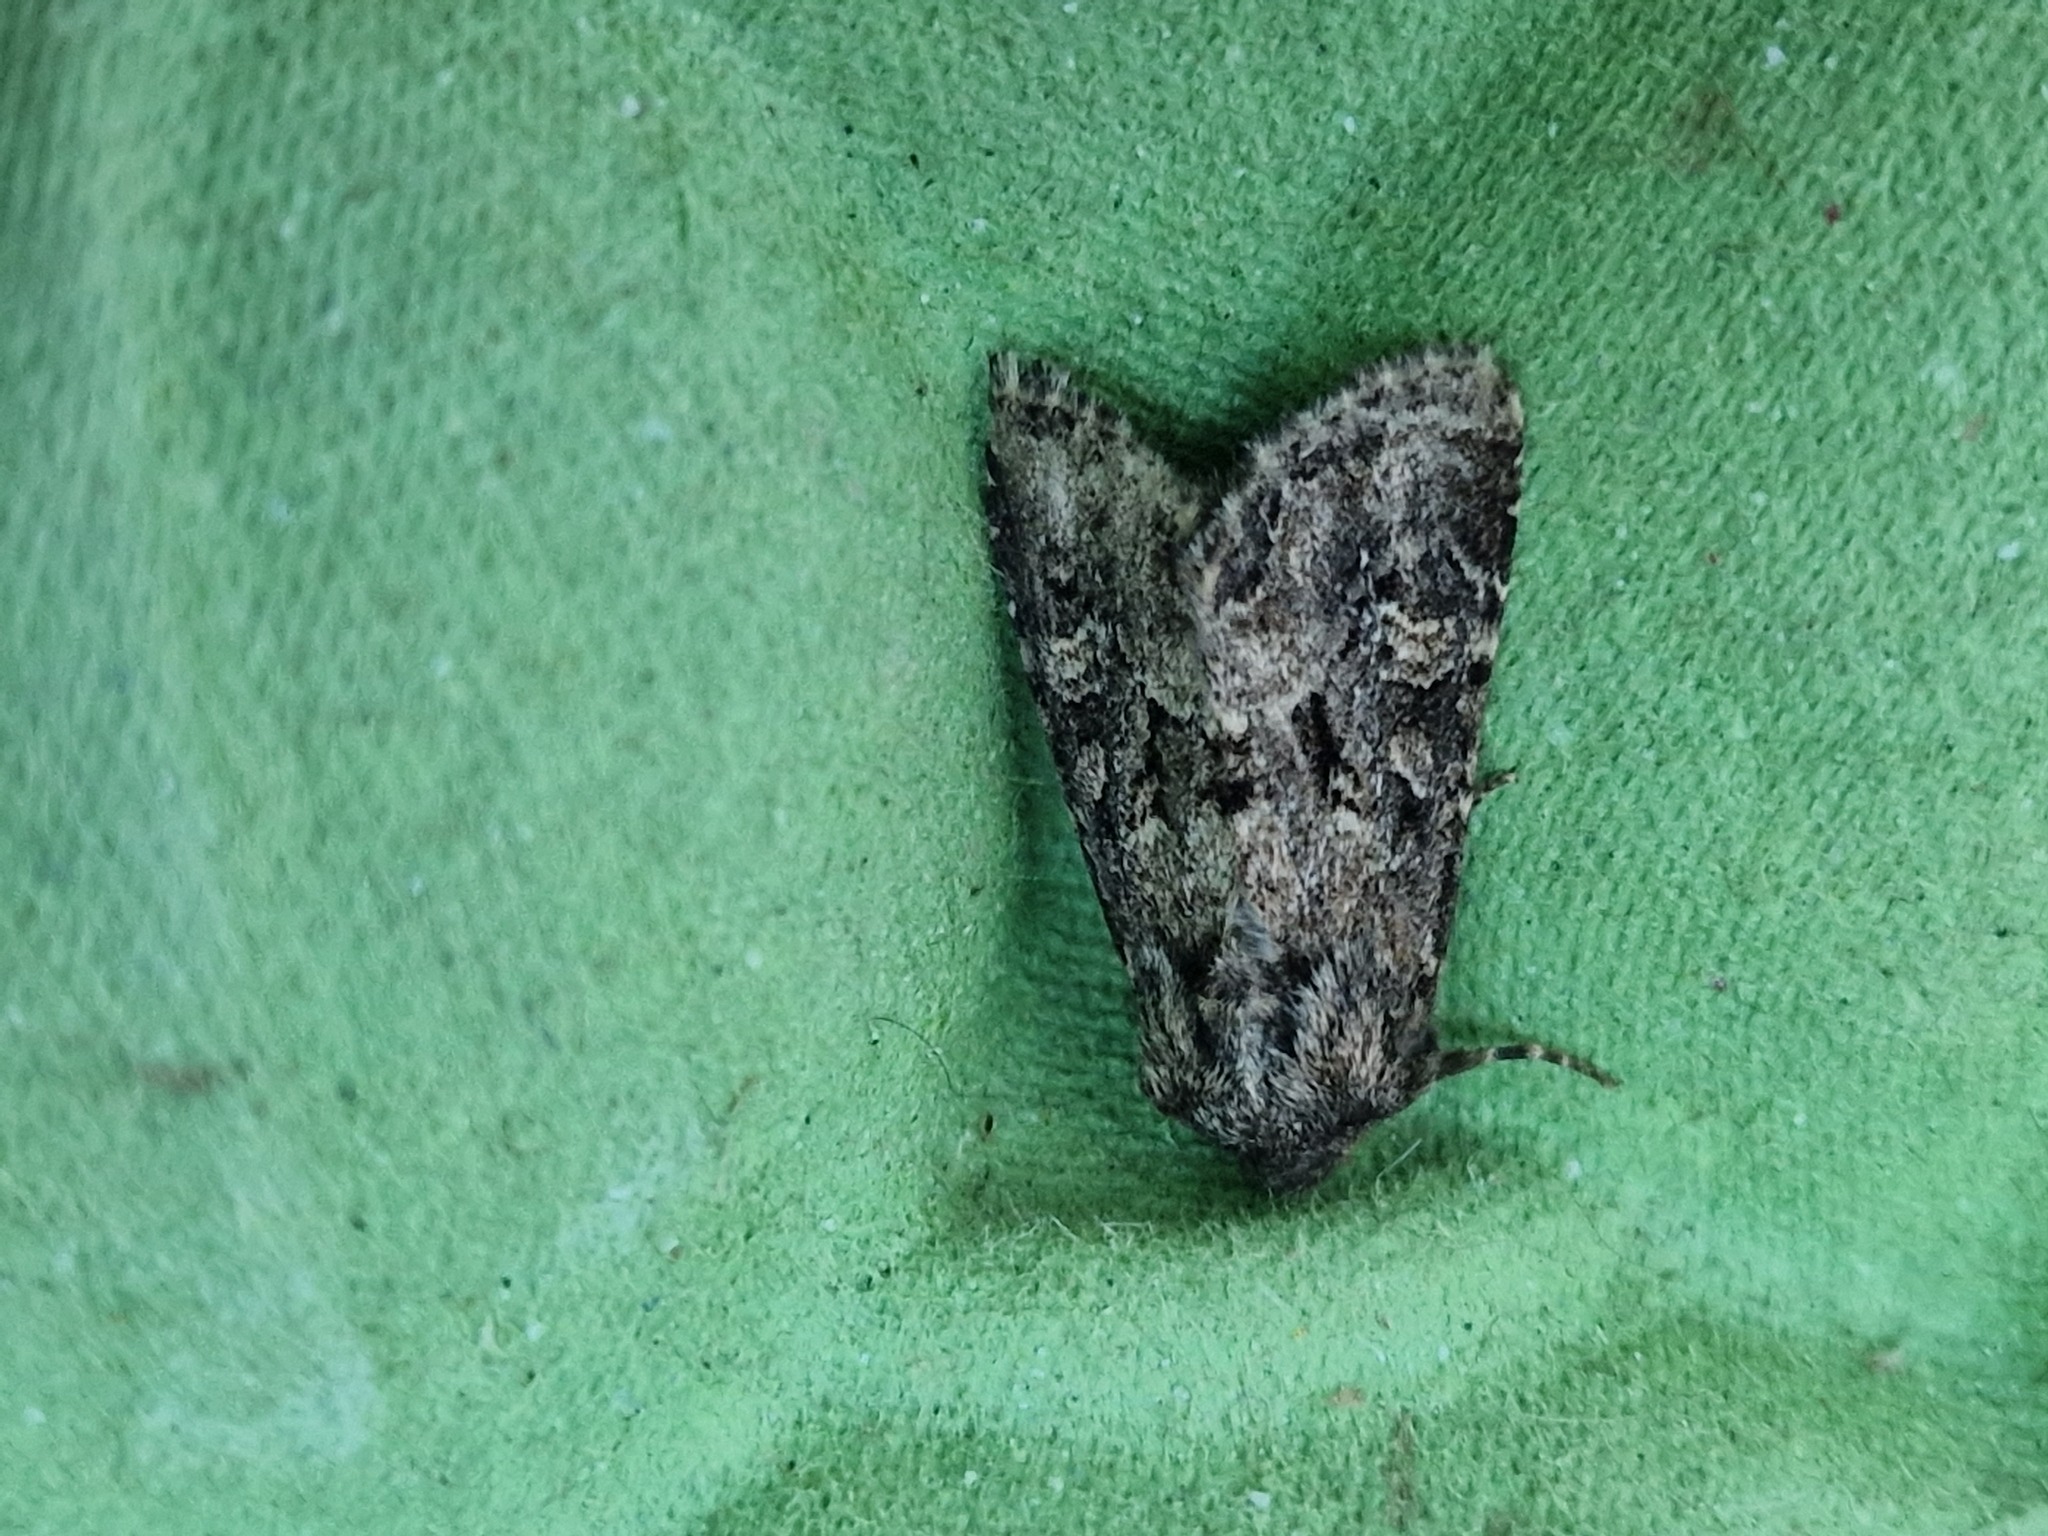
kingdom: Animalia
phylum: Arthropoda
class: Insecta
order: Lepidoptera
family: Noctuidae
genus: Luperina
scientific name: Luperina testacea
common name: Flounced rustic
